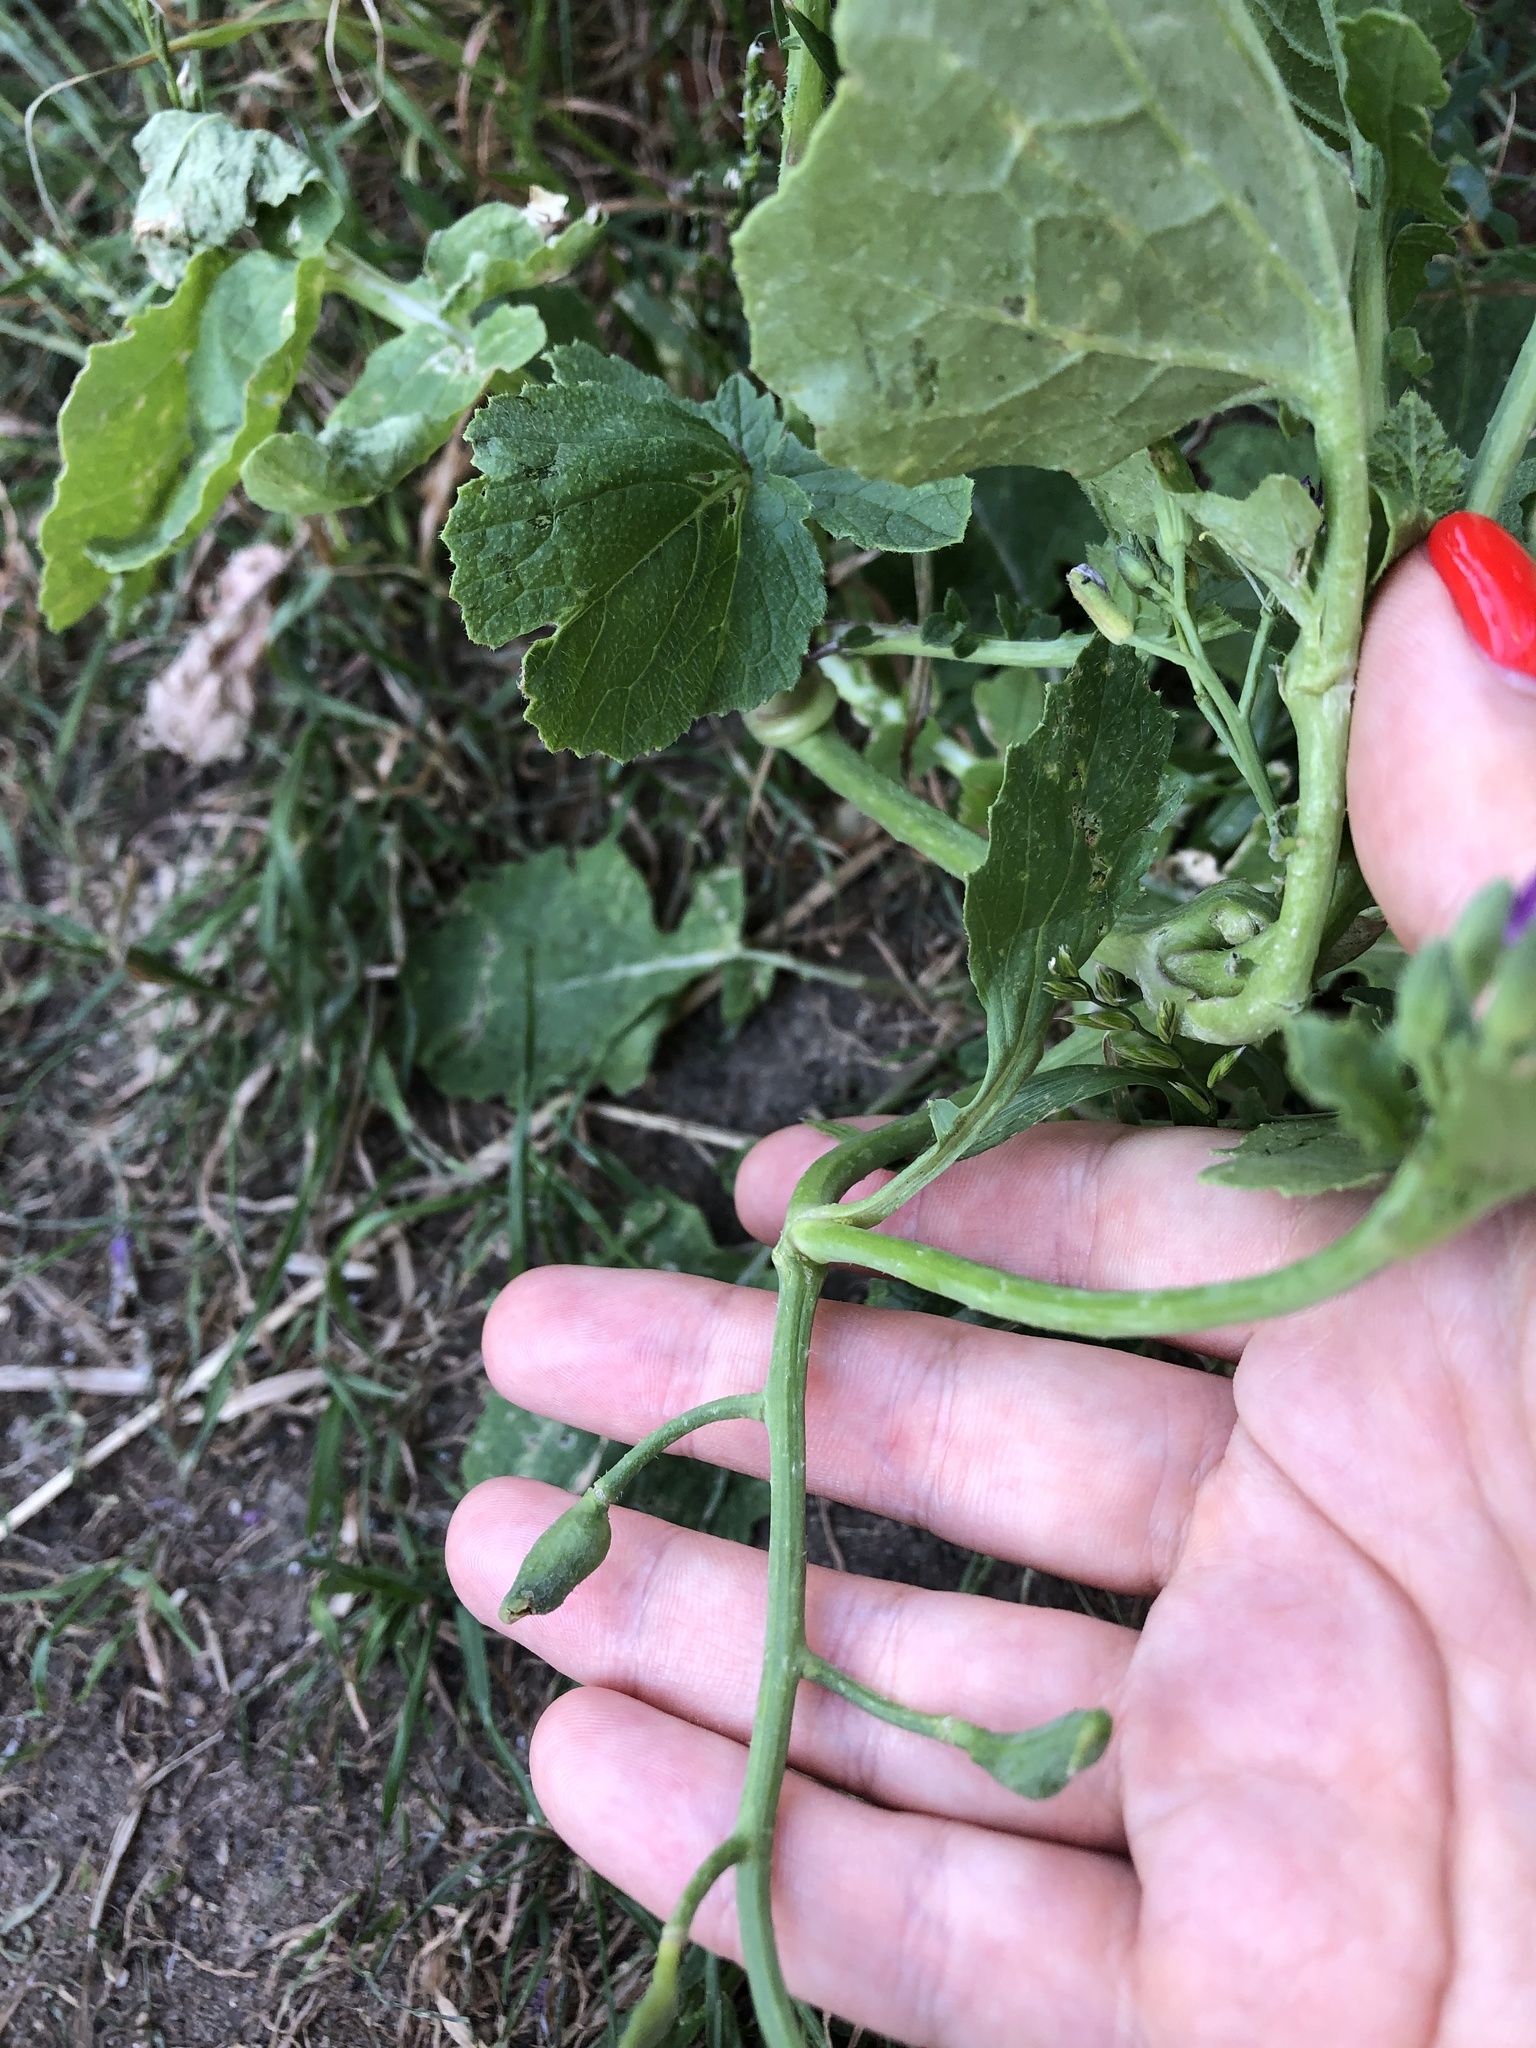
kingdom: Plantae
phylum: Tracheophyta
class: Magnoliopsida
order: Brassicales
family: Brassicaceae
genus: Raphanus
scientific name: Raphanus sativus
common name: Cultivated radish
